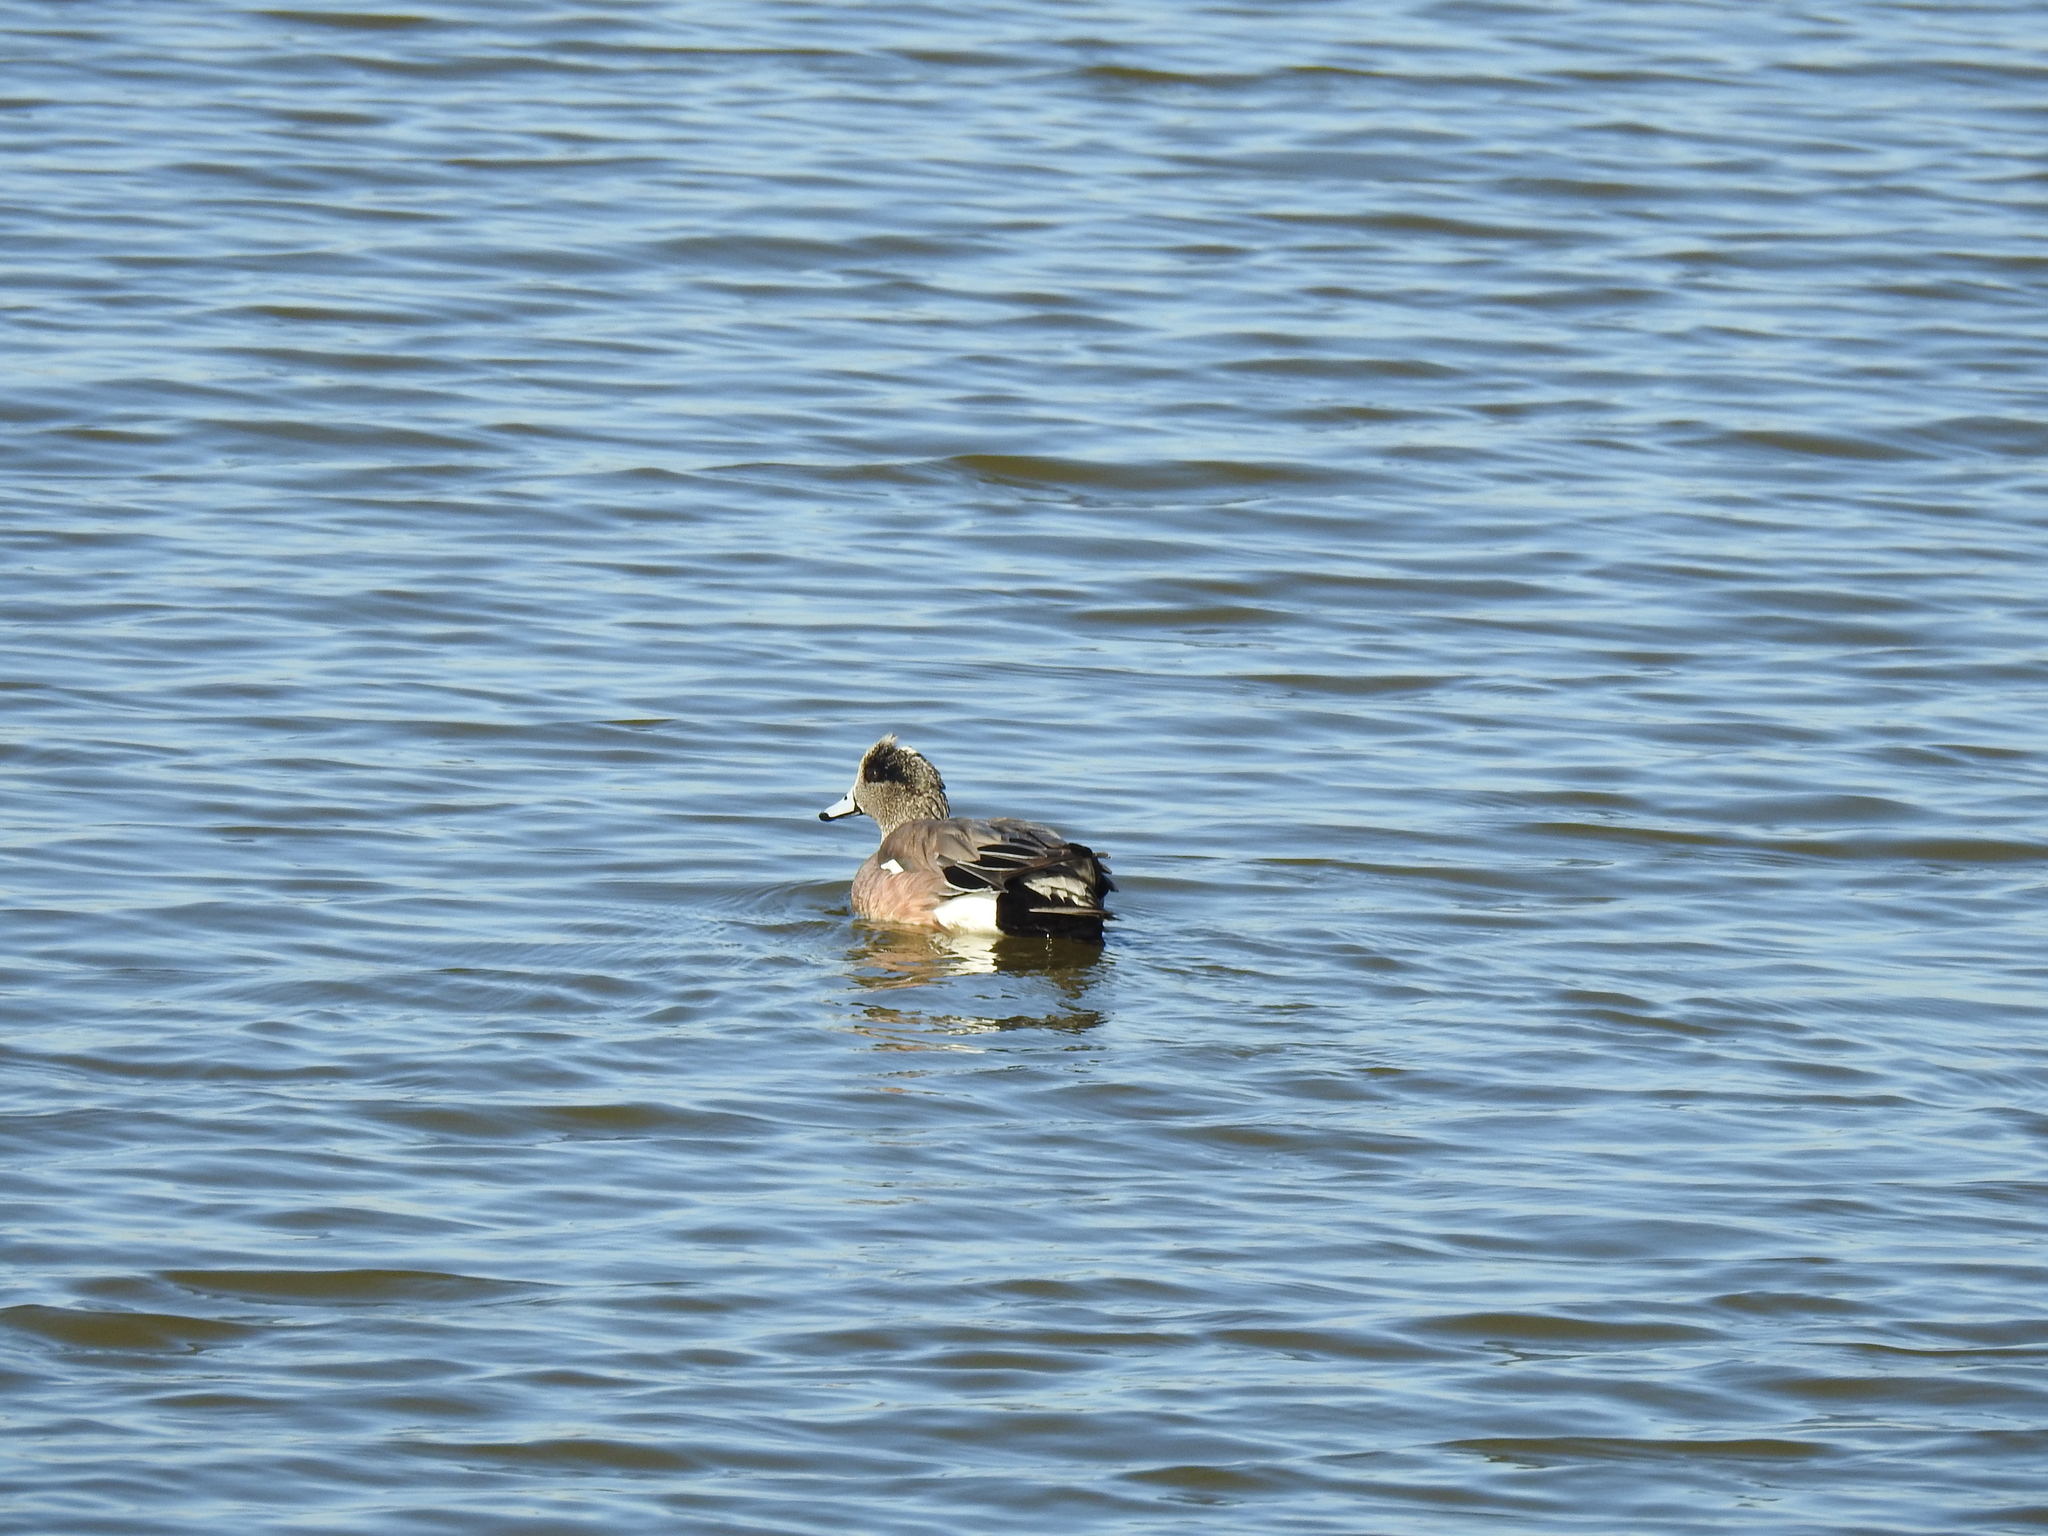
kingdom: Animalia
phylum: Chordata
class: Aves
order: Anseriformes
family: Anatidae
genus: Mareca
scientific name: Mareca americana
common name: American wigeon
